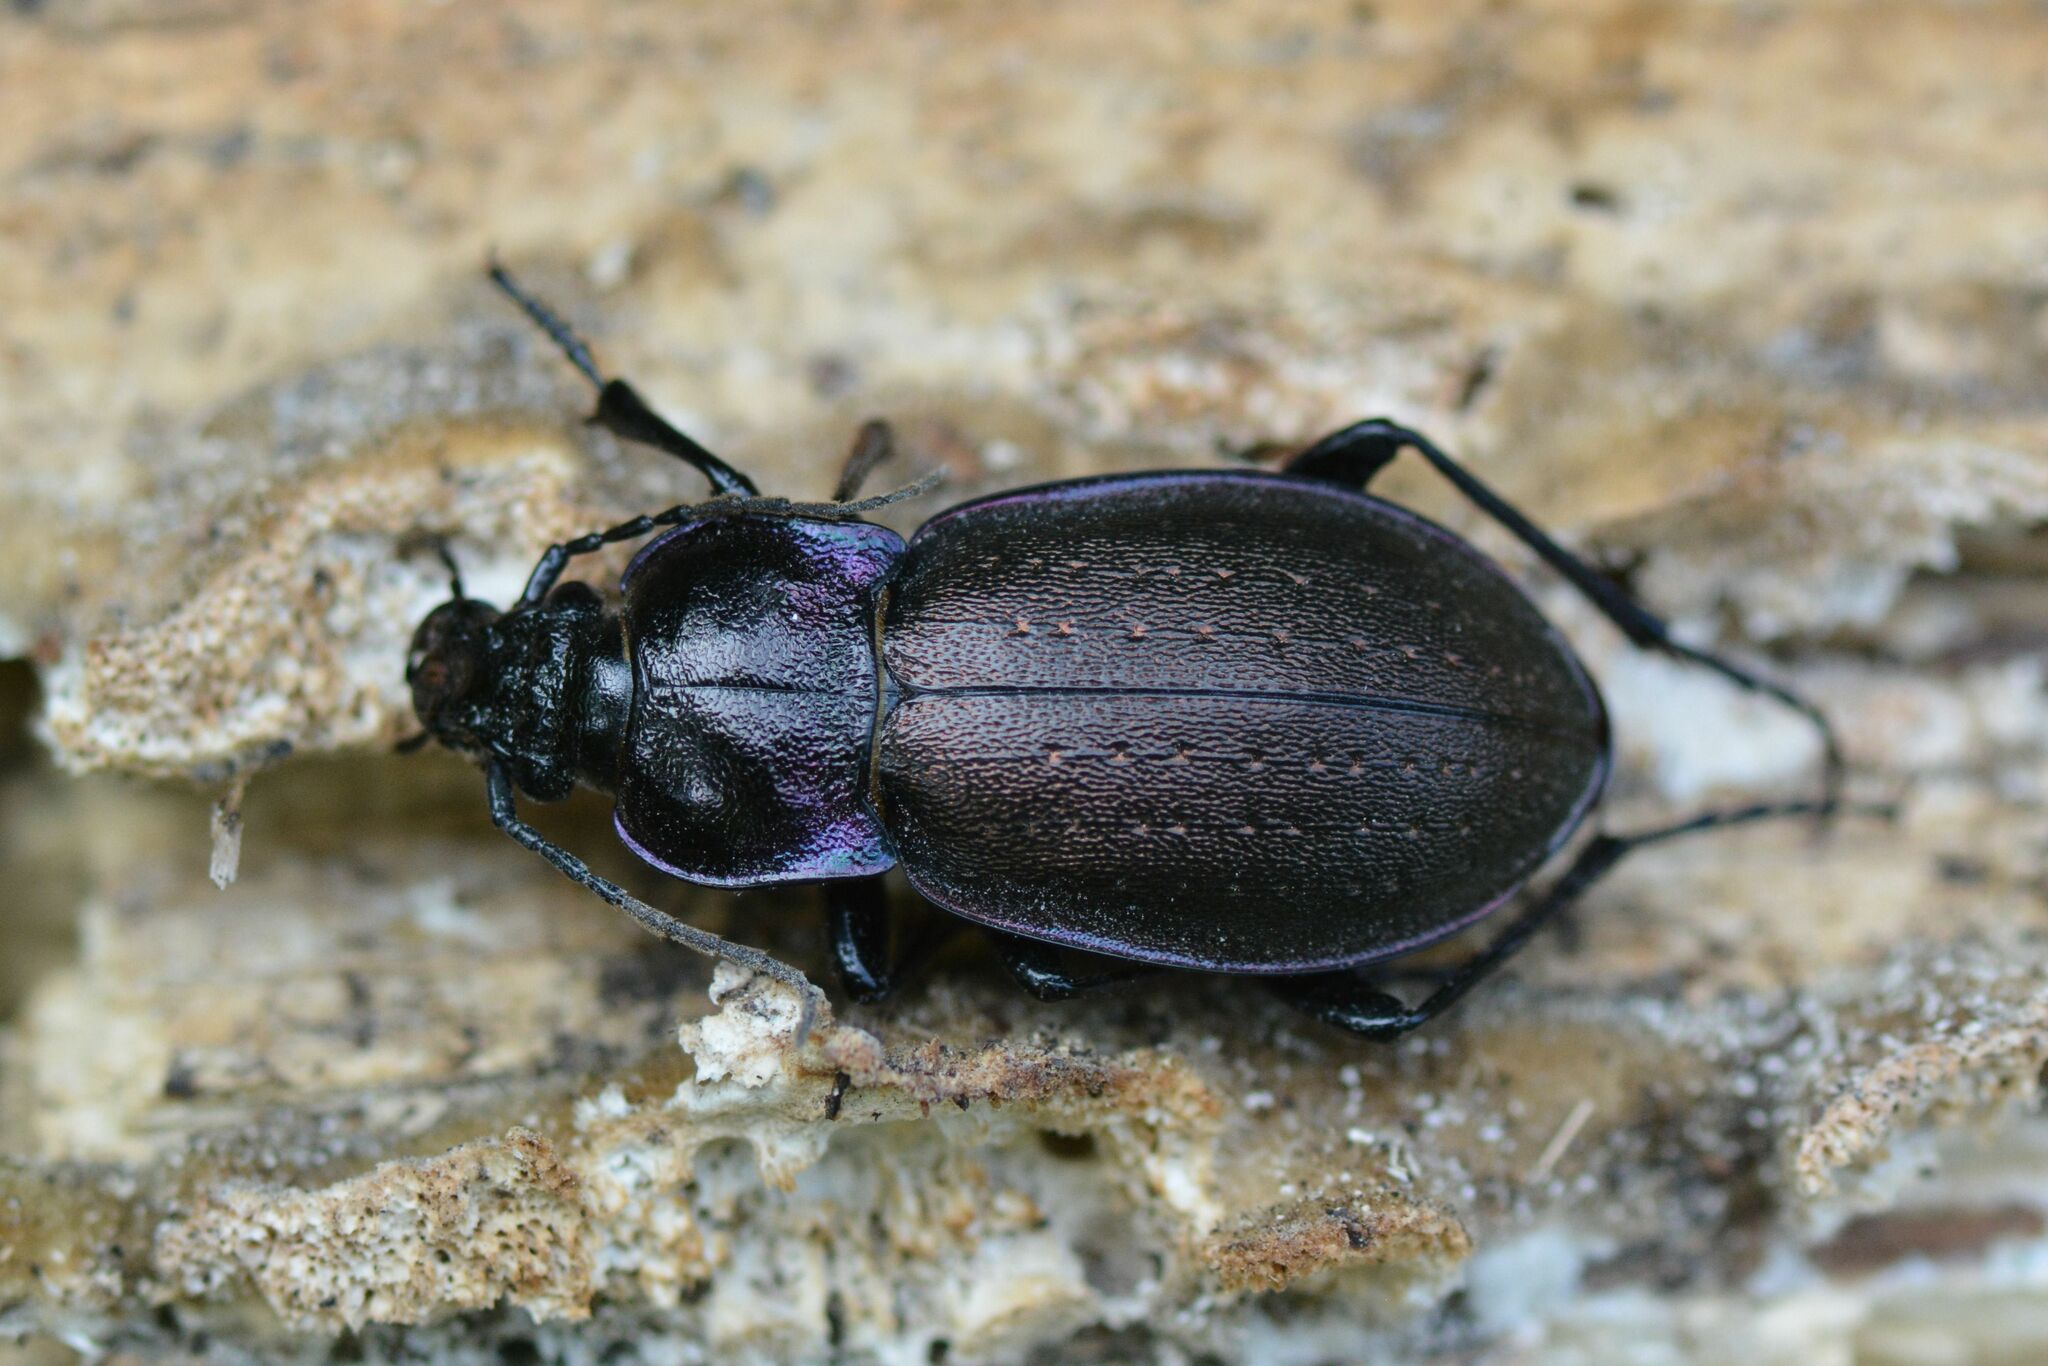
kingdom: Animalia
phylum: Arthropoda
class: Insecta
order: Coleoptera
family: Carabidae
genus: Carabus
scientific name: Carabus nemoralis
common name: European ground beetle
